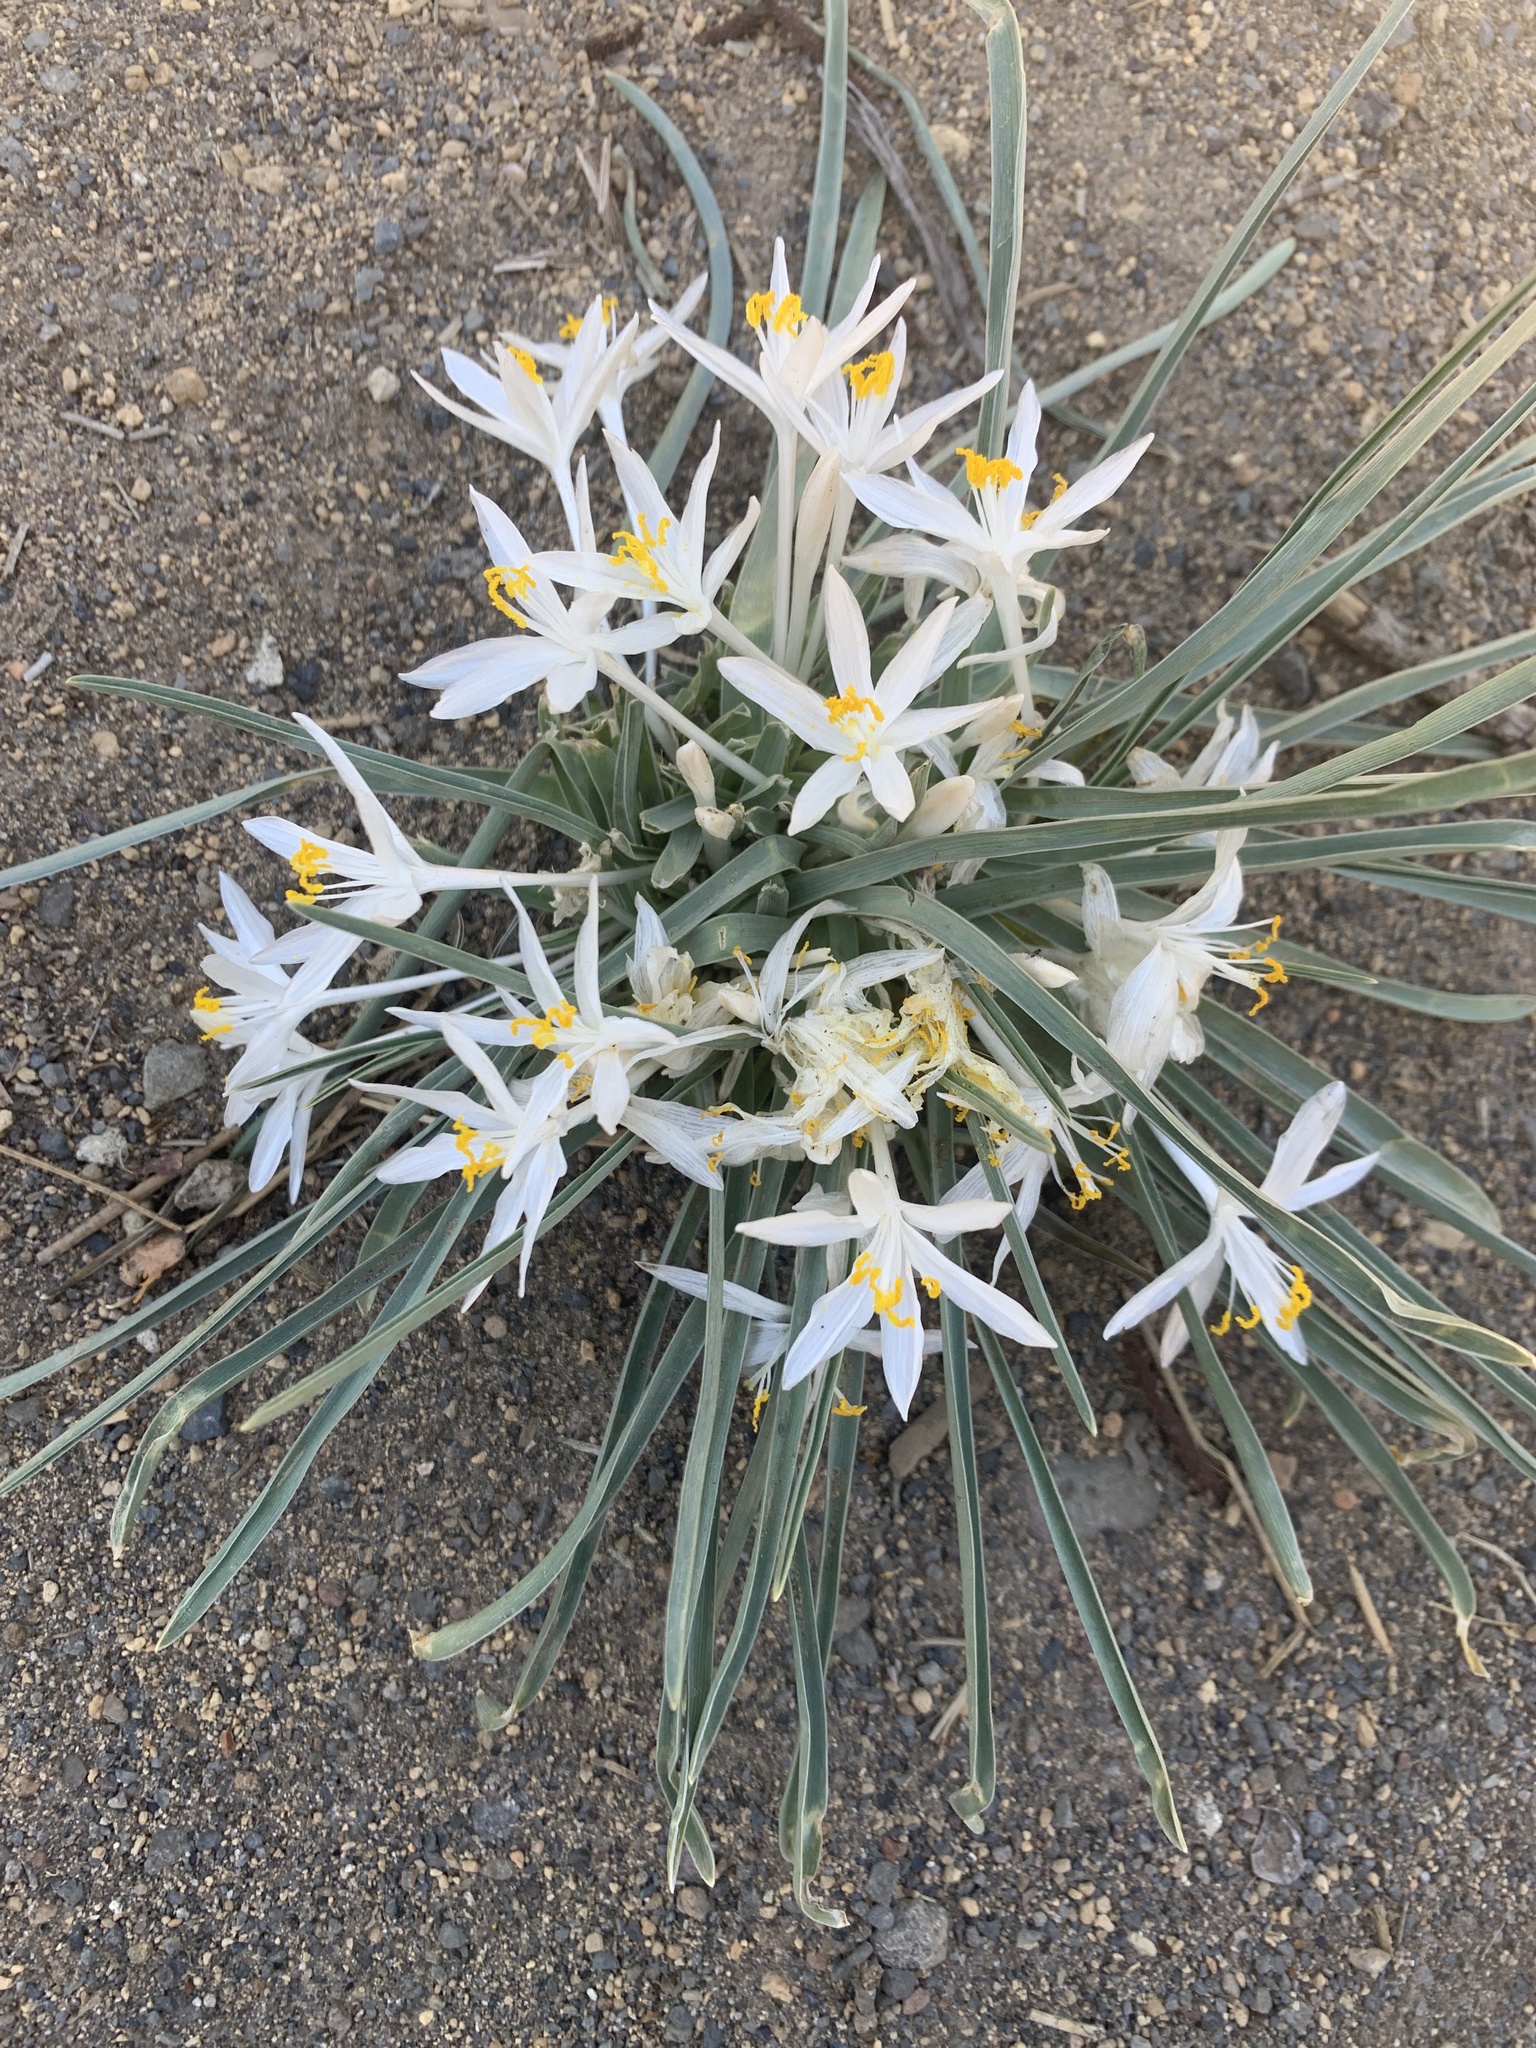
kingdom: Plantae
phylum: Tracheophyta
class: Liliopsida
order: Asparagales
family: Asparagaceae
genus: Leucocrinum
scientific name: Leucocrinum montanum
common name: Mountain-lily
